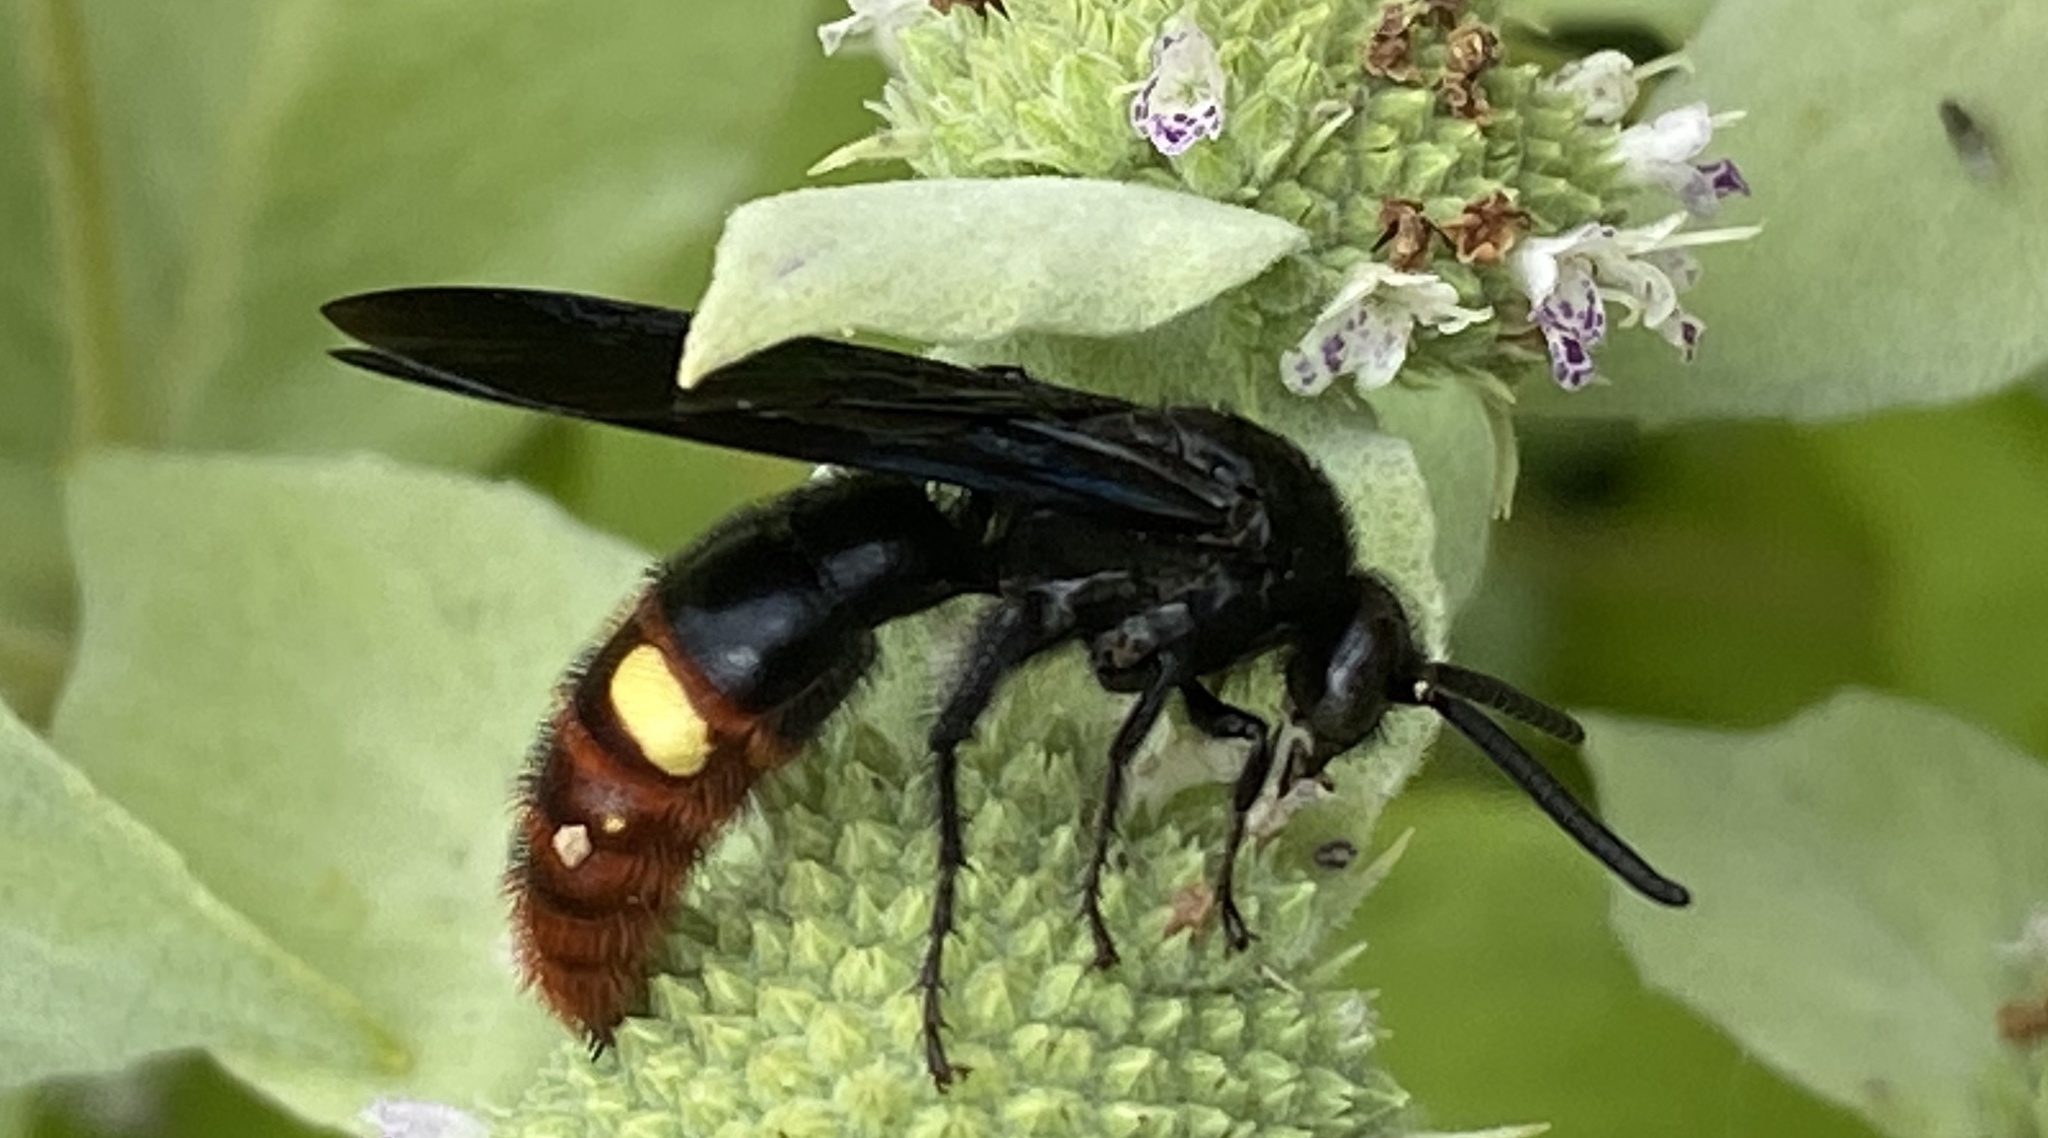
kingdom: Animalia
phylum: Arthropoda
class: Insecta
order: Hymenoptera
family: Scoliidae
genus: Scolia
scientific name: Scolia dubia
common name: Blue-winged scoliid wasp
